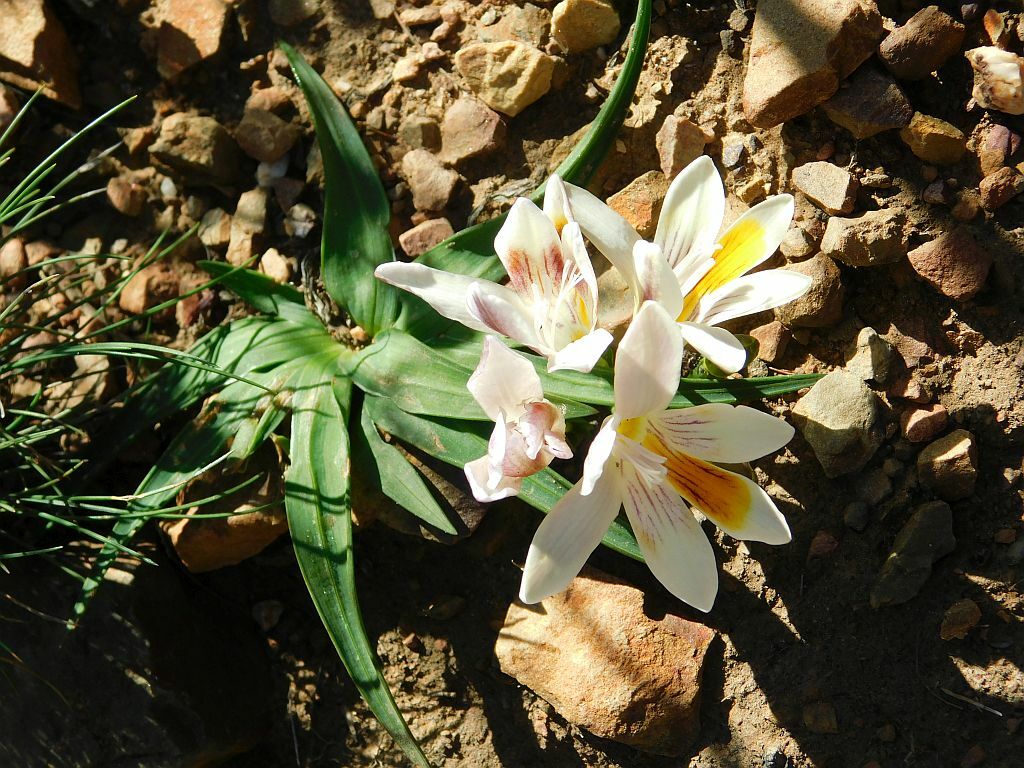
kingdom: Plantae
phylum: Tracheophyta
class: Liliopsida
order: Asparagales
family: Iridaceae
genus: Freesia
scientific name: Freesia caryophyllacea
